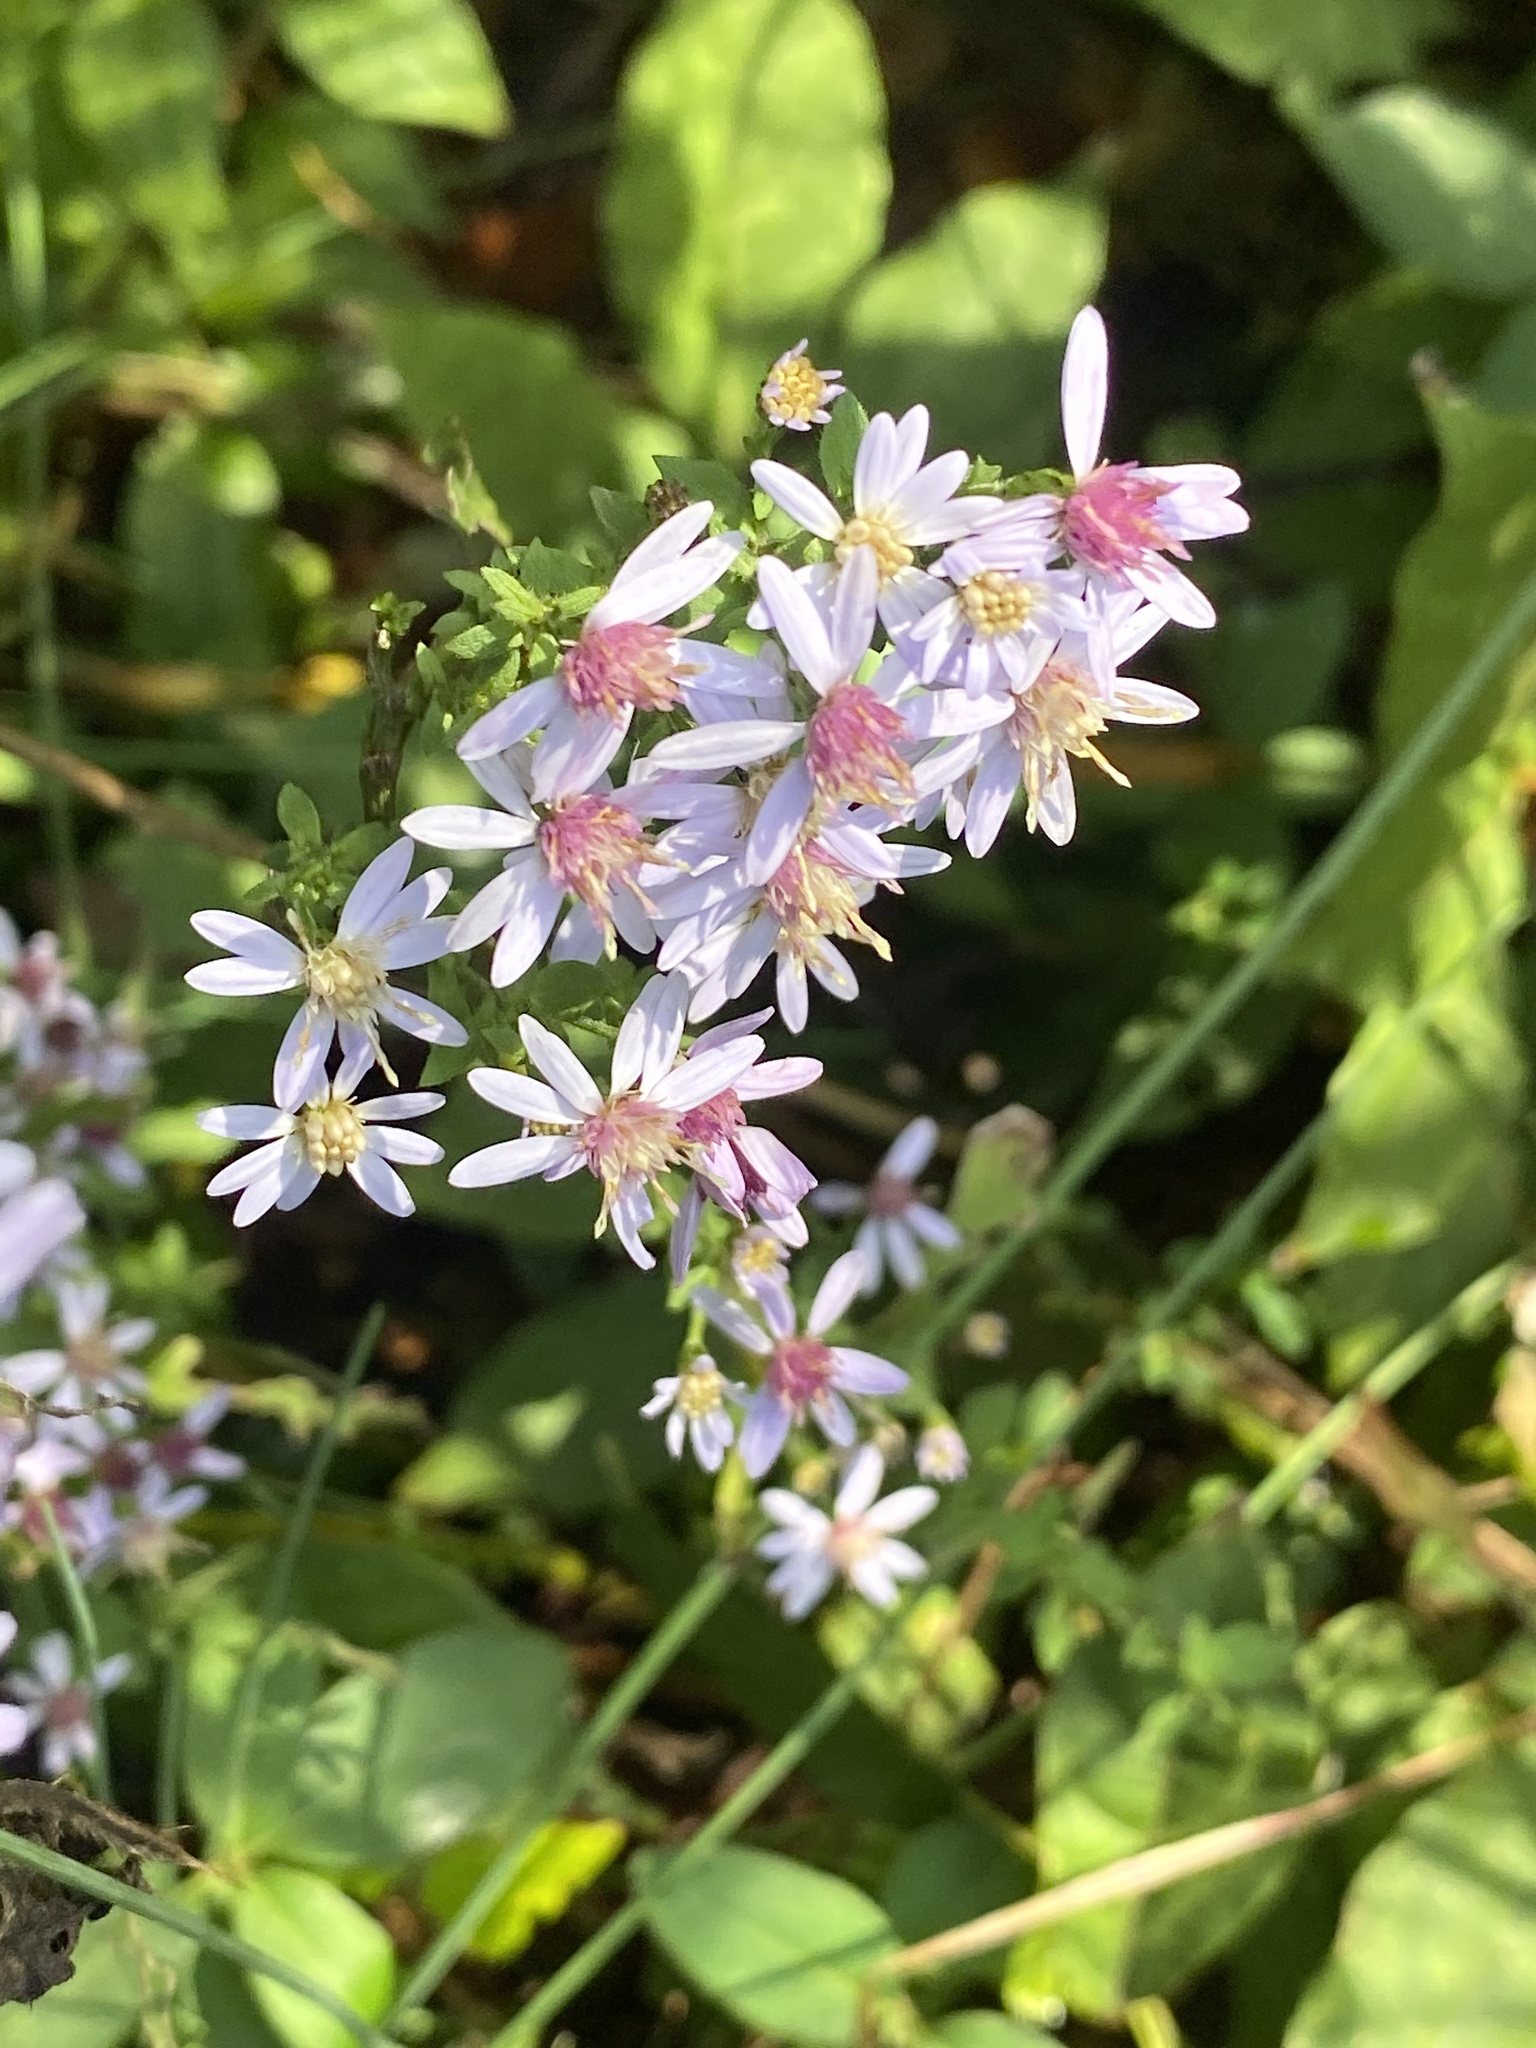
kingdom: Plantae
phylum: Tracheophyta
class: Magnoliopsida
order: Asterales
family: Asteraceae
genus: Symphyotrichum
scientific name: Symphyotrichum cordifolium
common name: Beeweed
